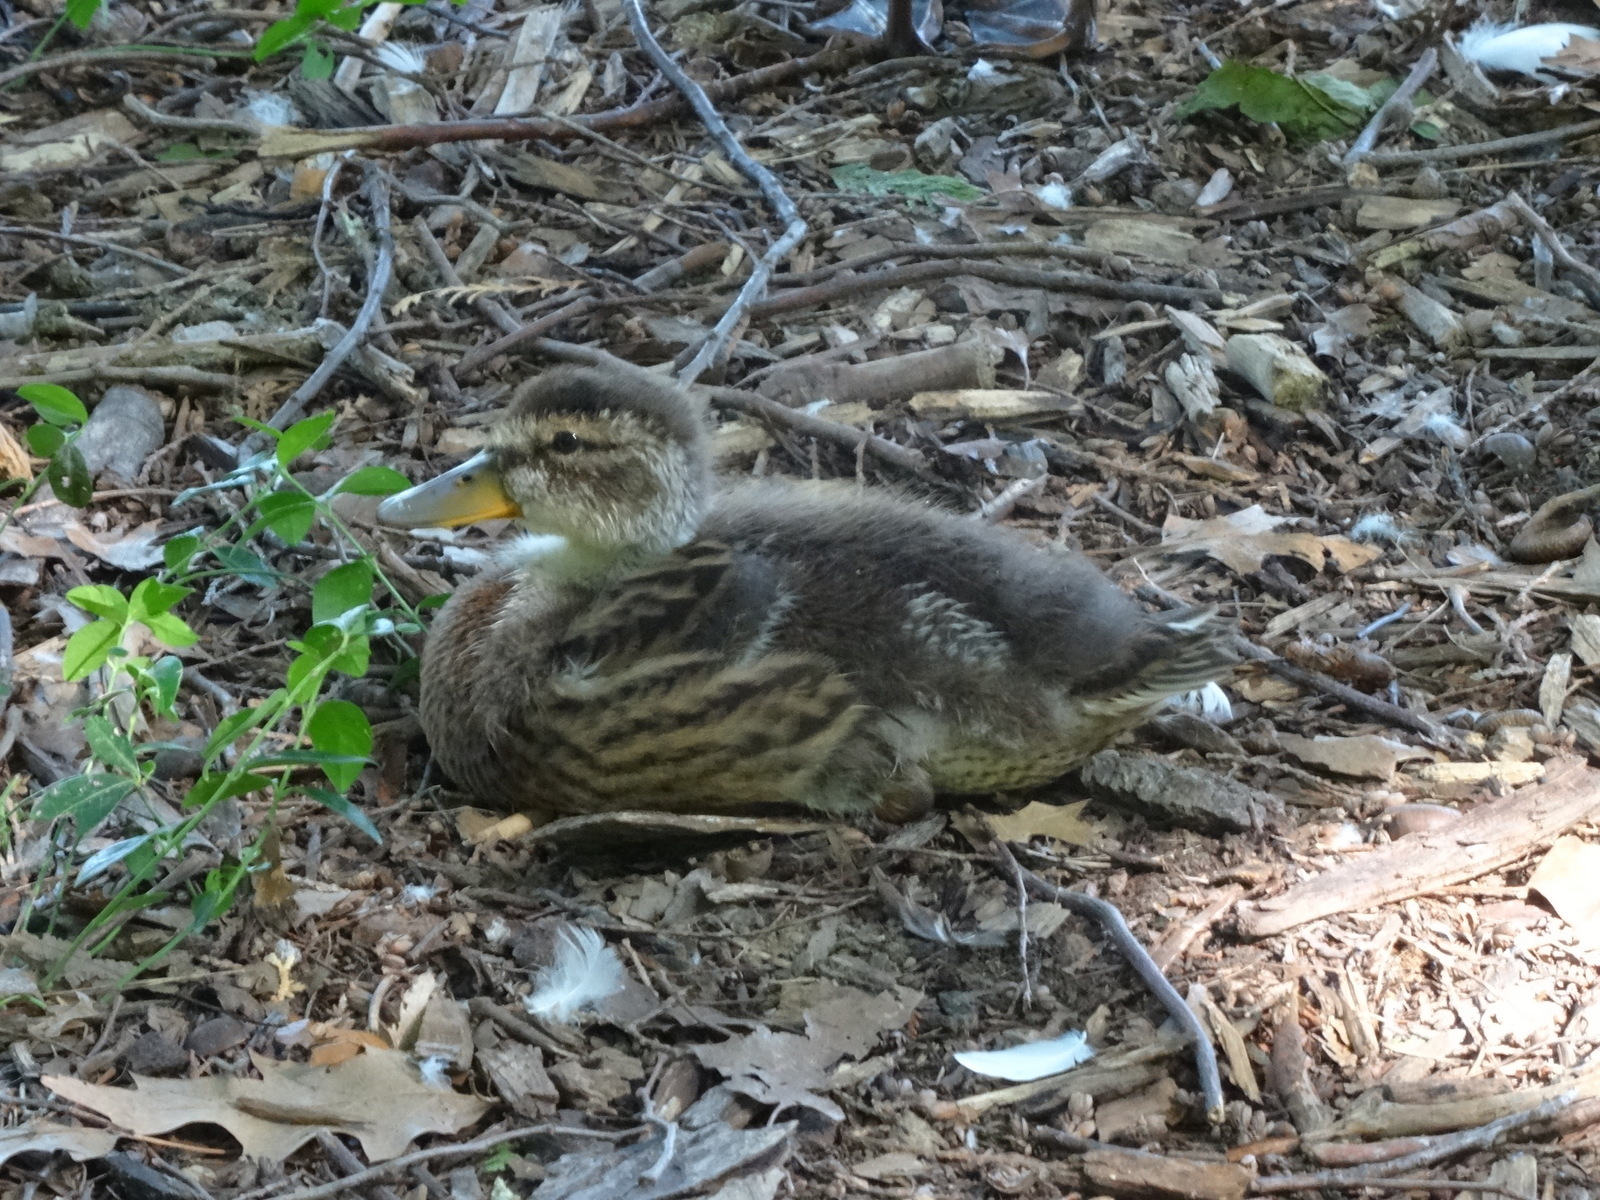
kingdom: Animalia
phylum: Chordata
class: Aves
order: Anseriformes
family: Anatidae
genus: Anas
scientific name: Anas platyrhynchos
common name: Mallard
